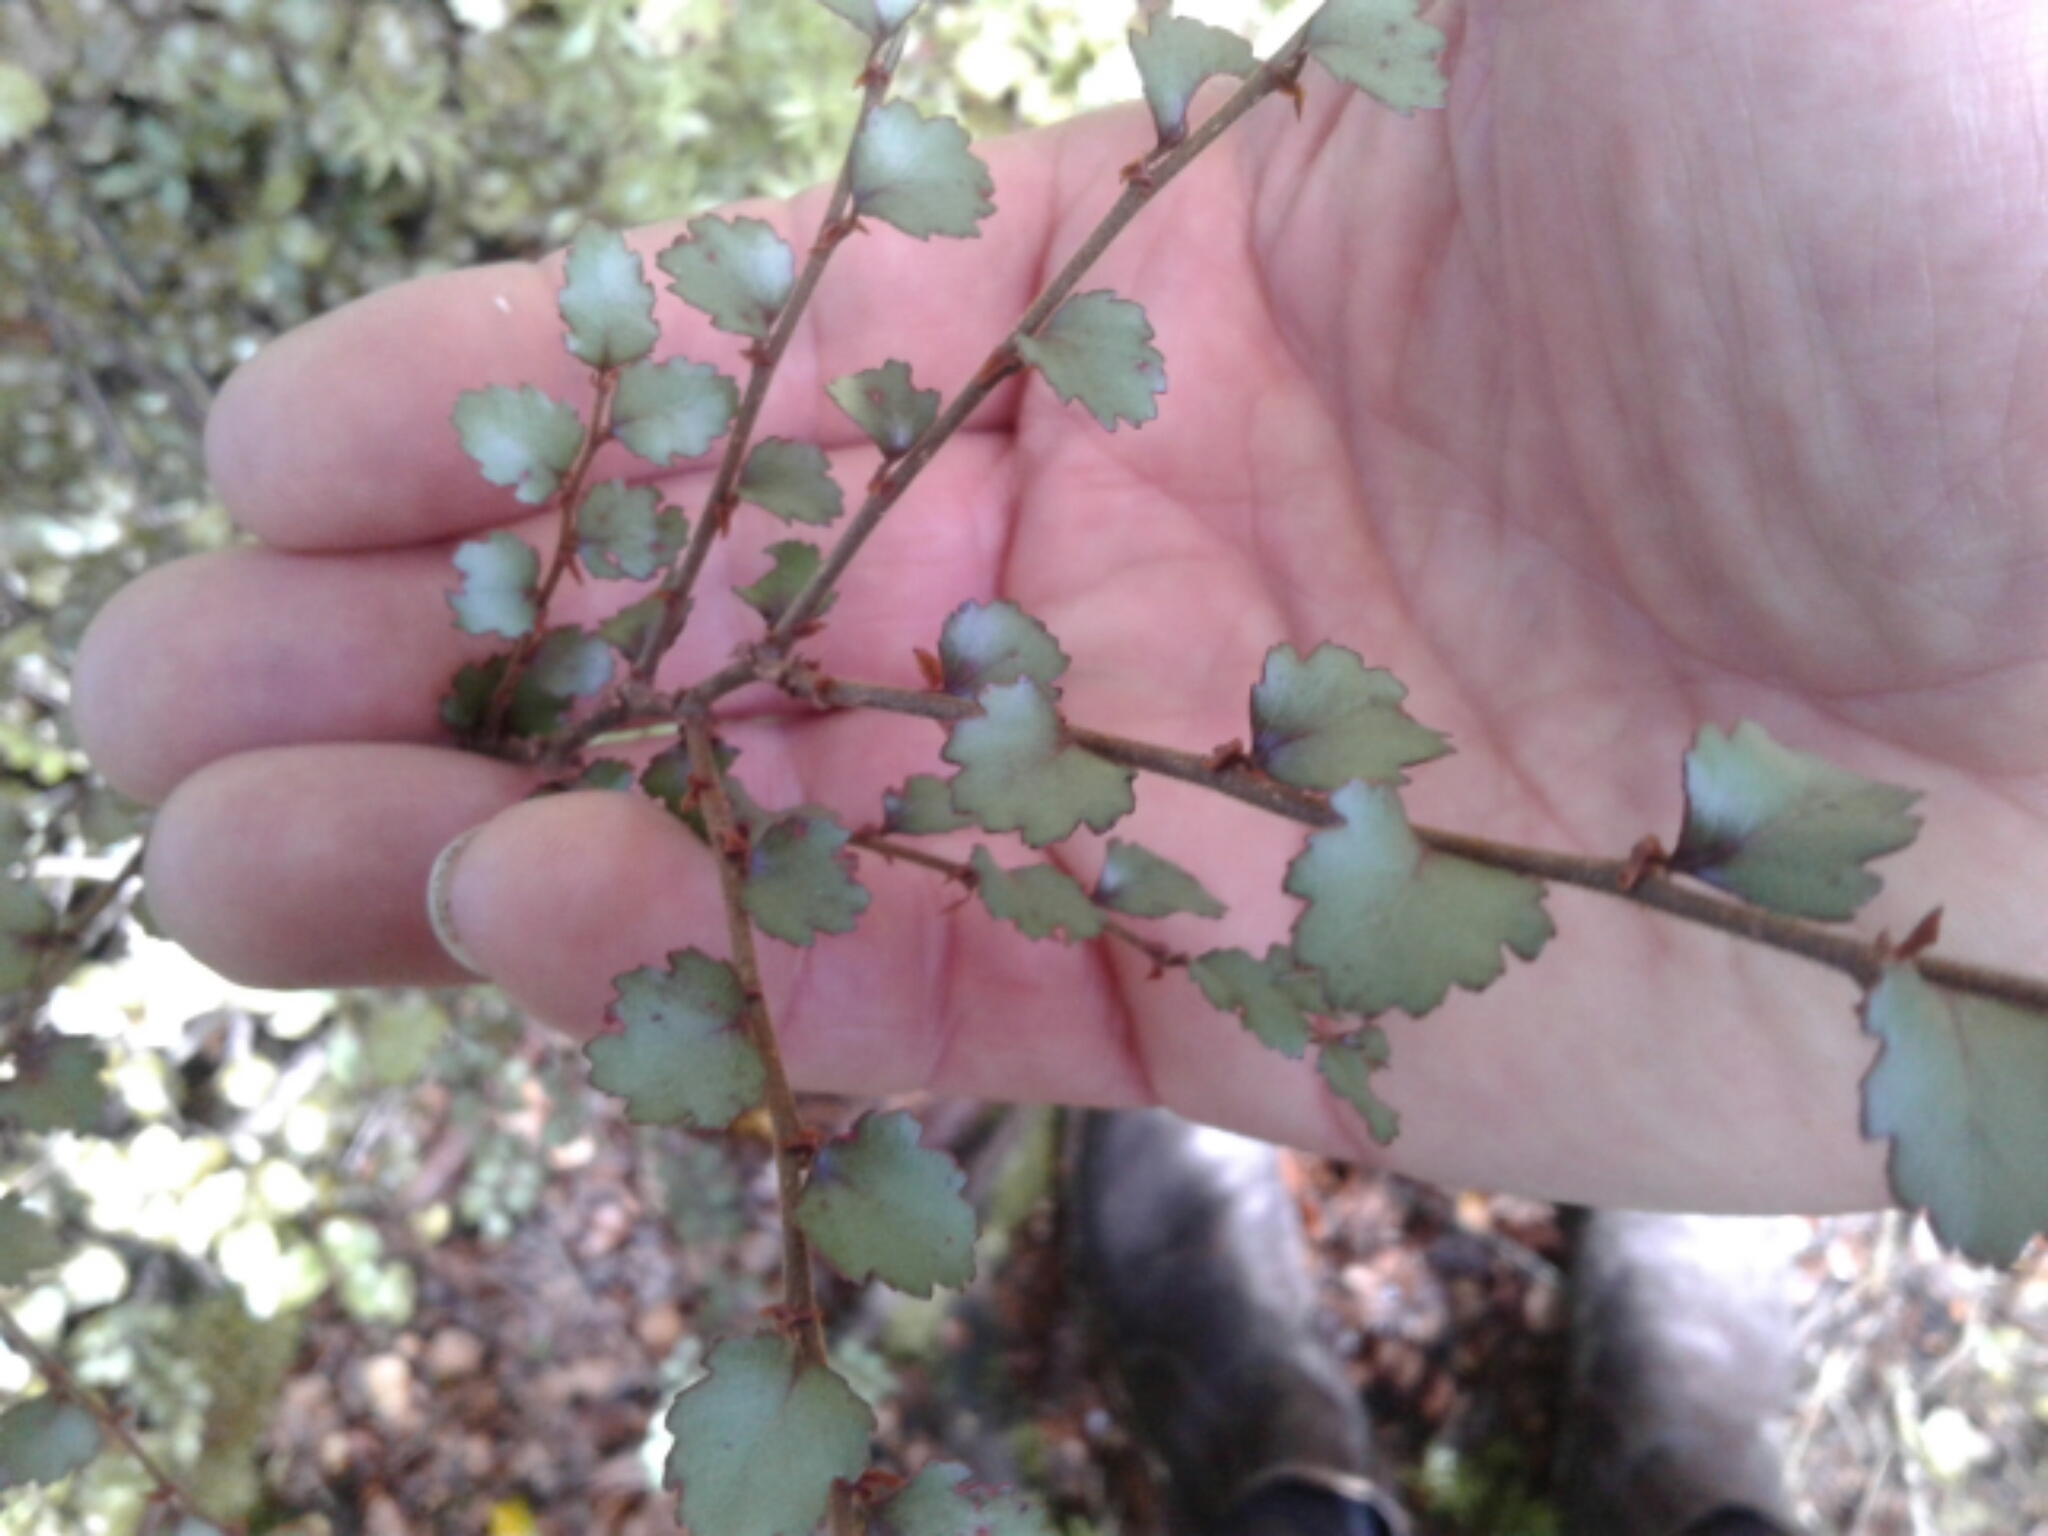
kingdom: Plantae
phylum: Tracheophyta
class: Magnoliopsida
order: Fagales
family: Nothofagaceae
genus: Nothofagus
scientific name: Nothofagus menziesii
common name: Silver beech
